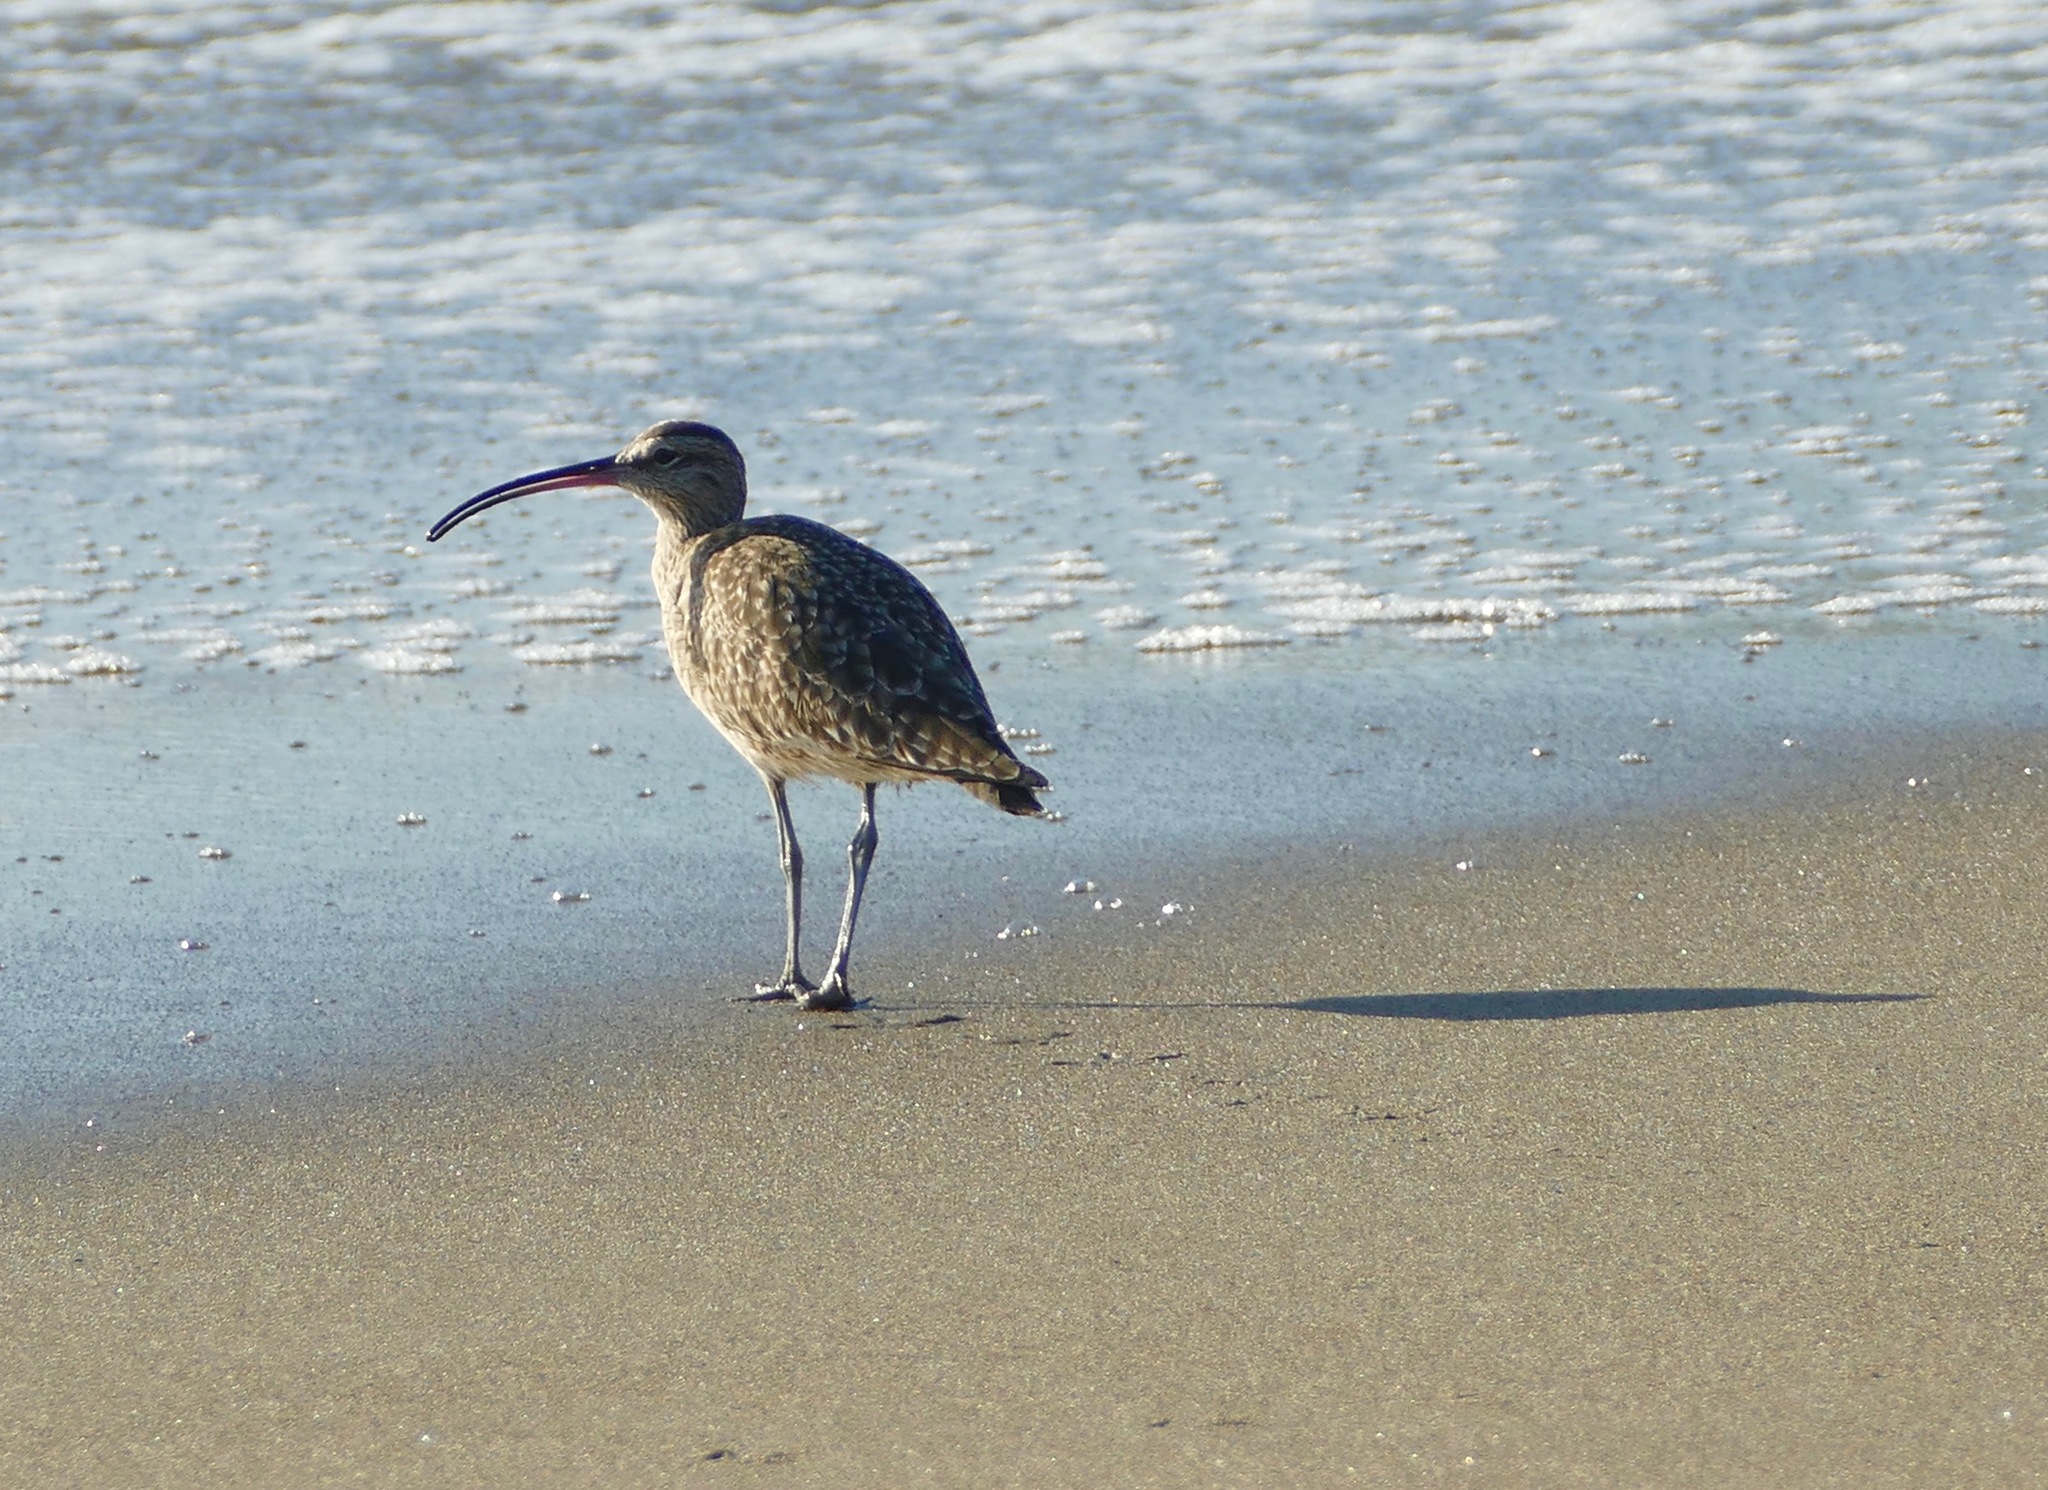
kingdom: Animalia
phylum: Chordata
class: Aves
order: Charadriiformes
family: Scolopacidae
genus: Numenius
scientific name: Numenius phaeopus
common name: Whimbrel
